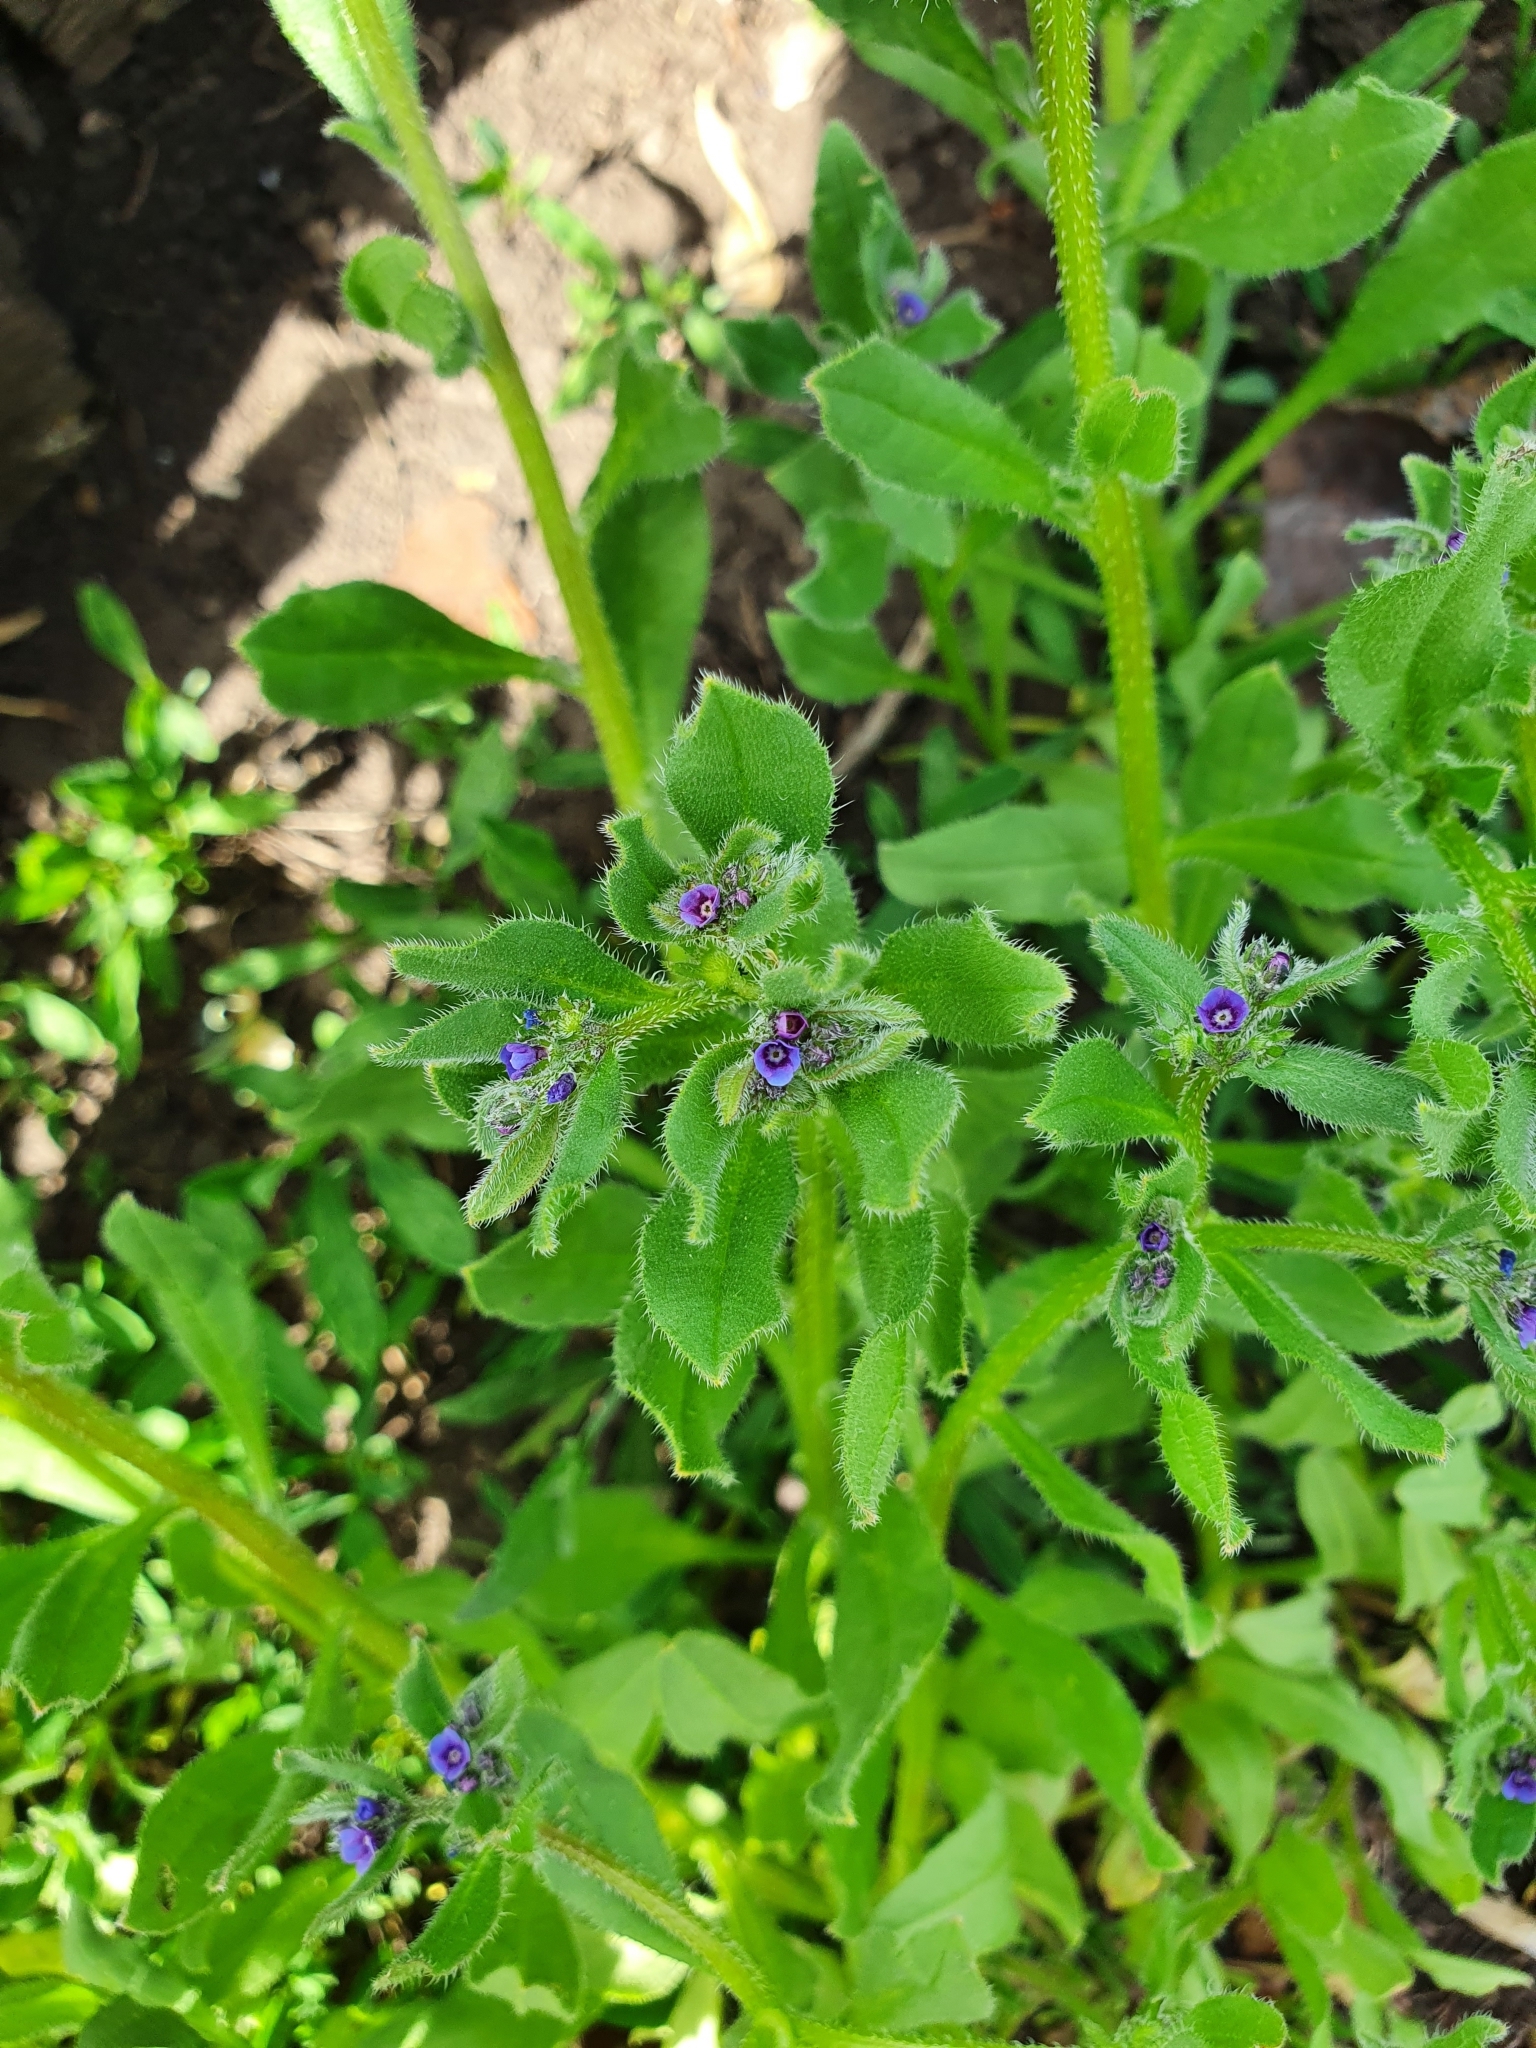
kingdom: Plantae
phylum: Tracheophyta
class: Magnoliopsida
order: Boraginales
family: Boraginaceae
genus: Asperugo
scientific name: Asperugo procumbens
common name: Madwort
